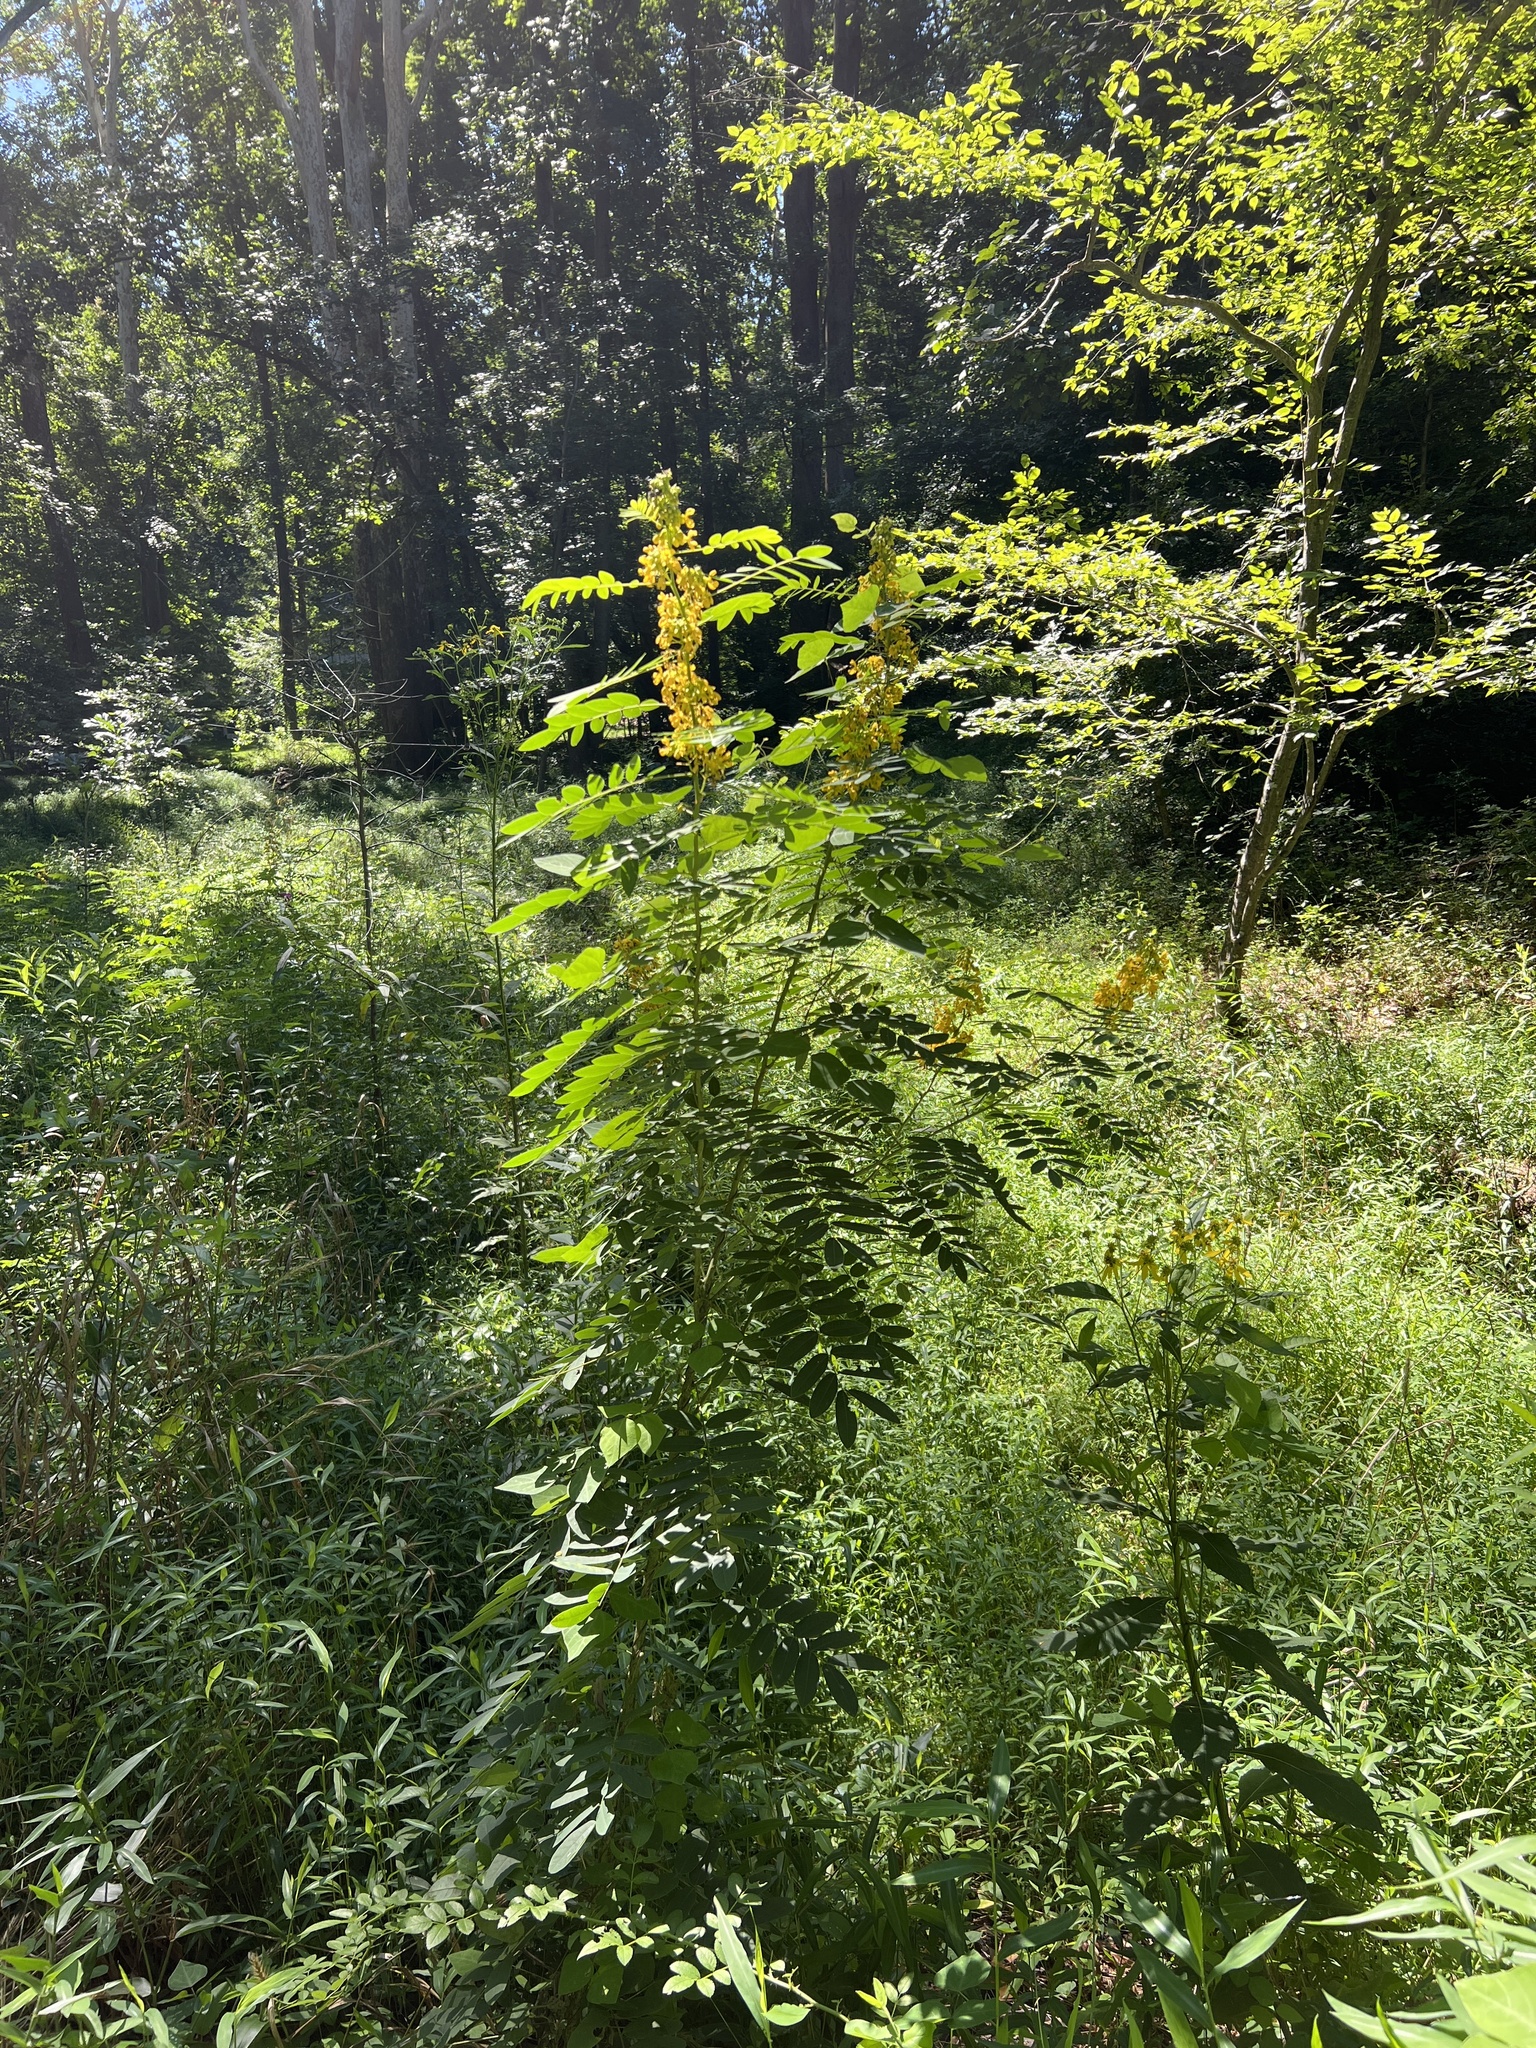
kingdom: Plantae
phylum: Tracheophyta
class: Magnoliopsida
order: Fabales
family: Fabaceae
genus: Senna
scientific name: Senna hebecarpa
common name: Wild senna
